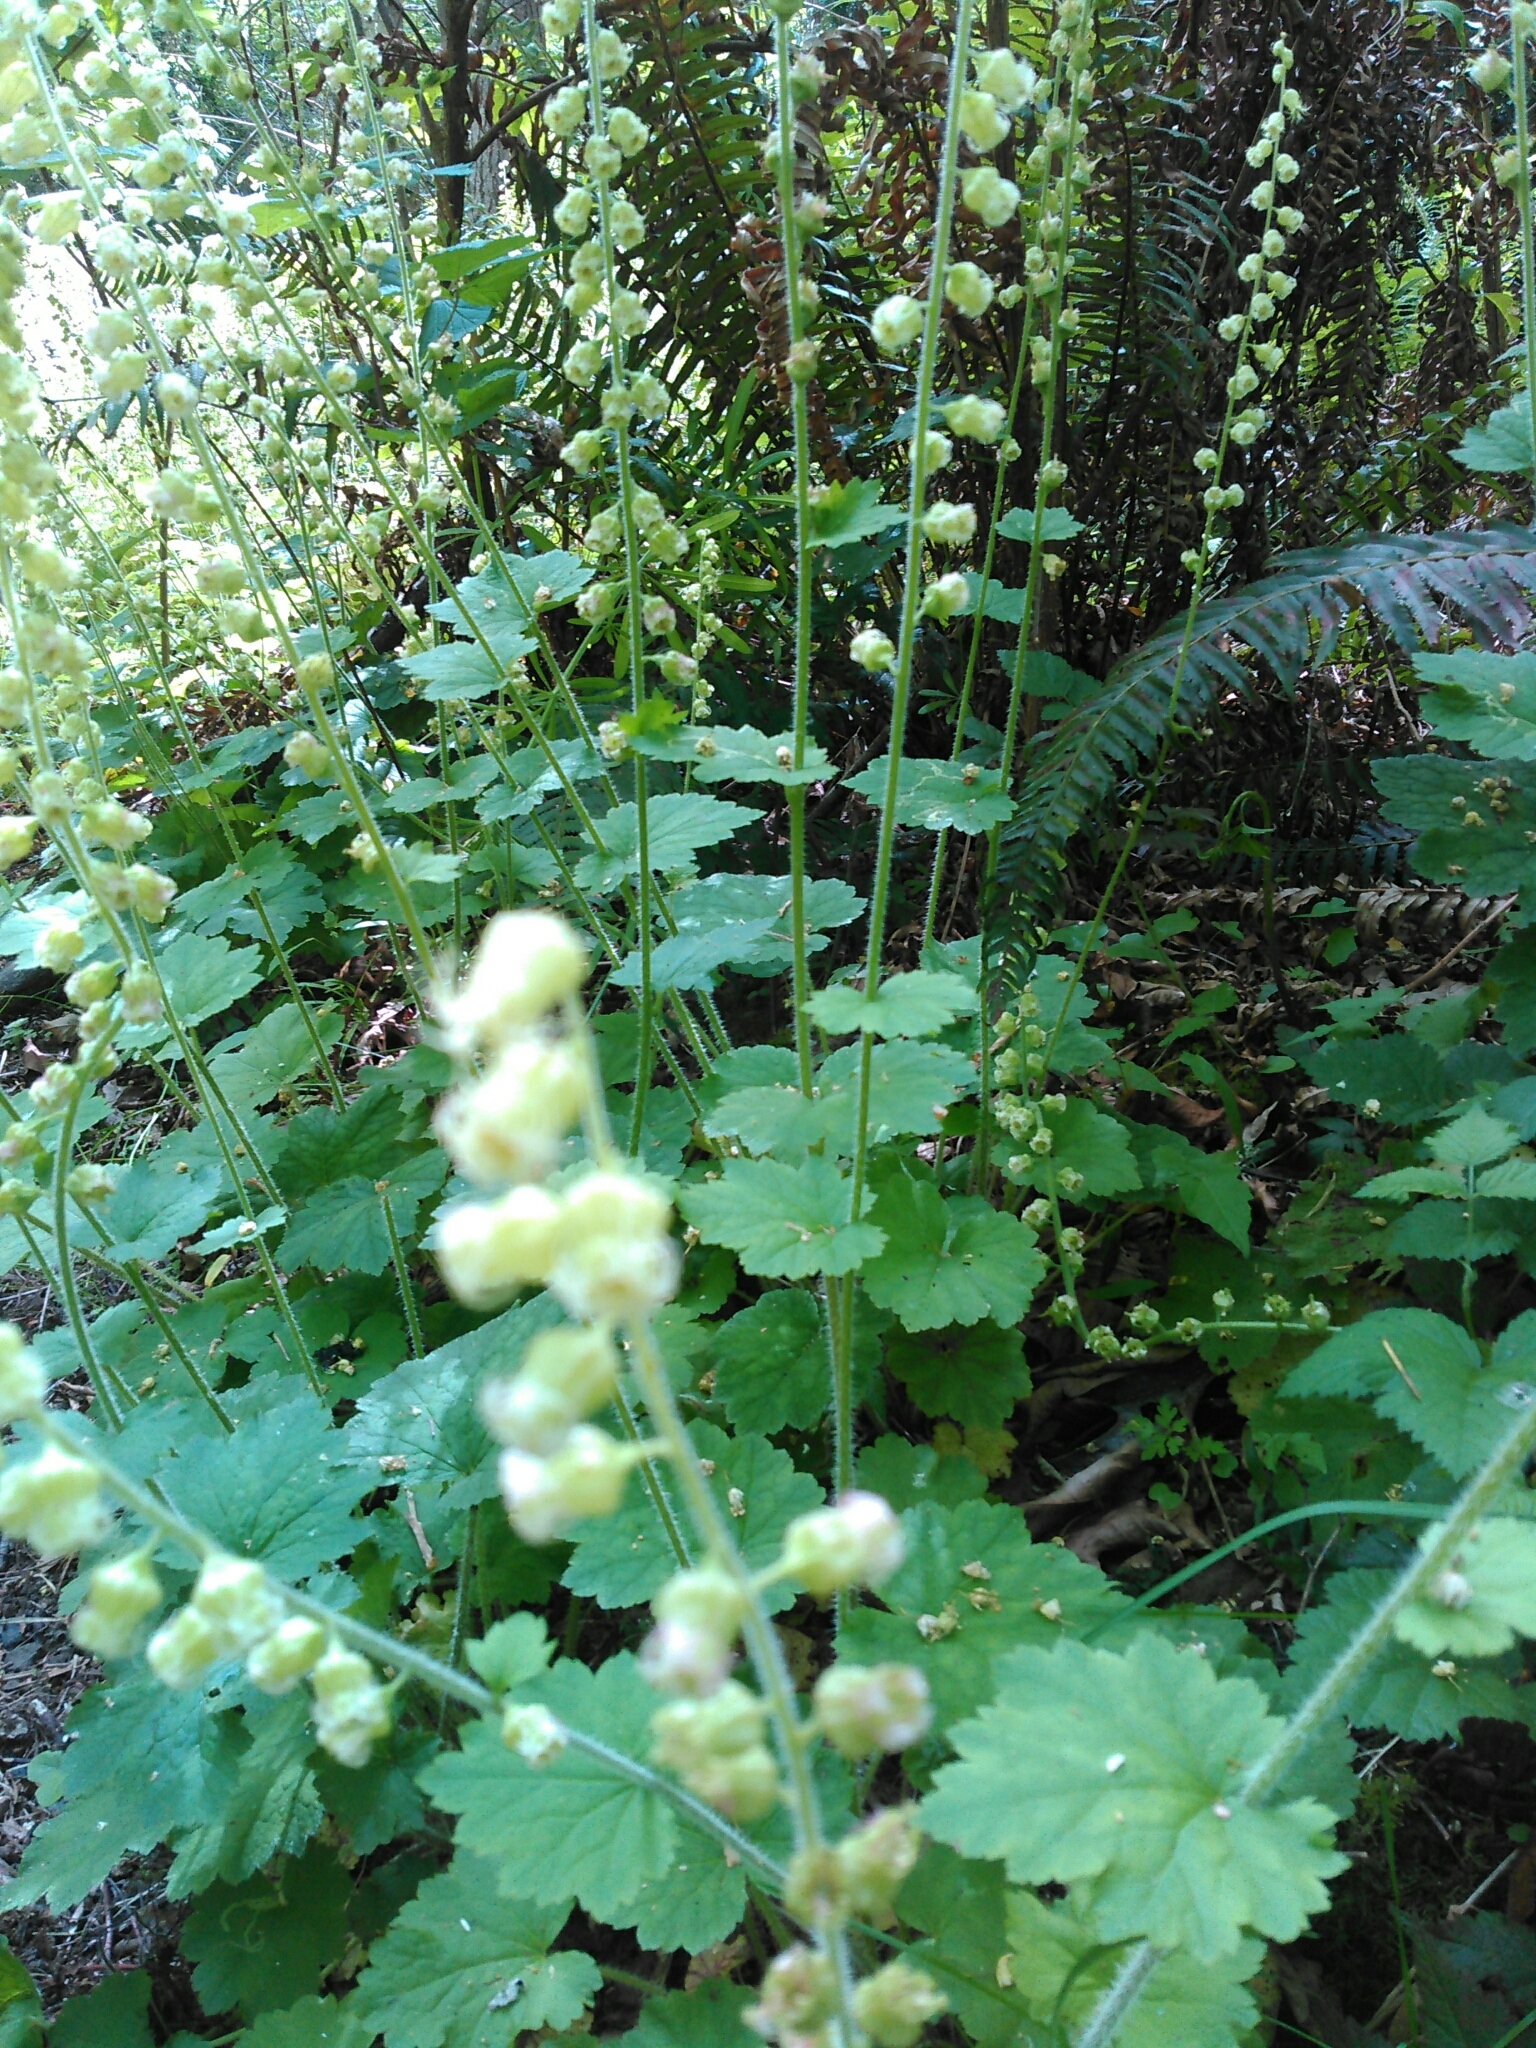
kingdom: Plantae
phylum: Tracheophyta
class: Magnoliopsida
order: Saxifragales
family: Saxifragaceae
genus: Tellima
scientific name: Tellima grandiflora
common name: Fringecups
